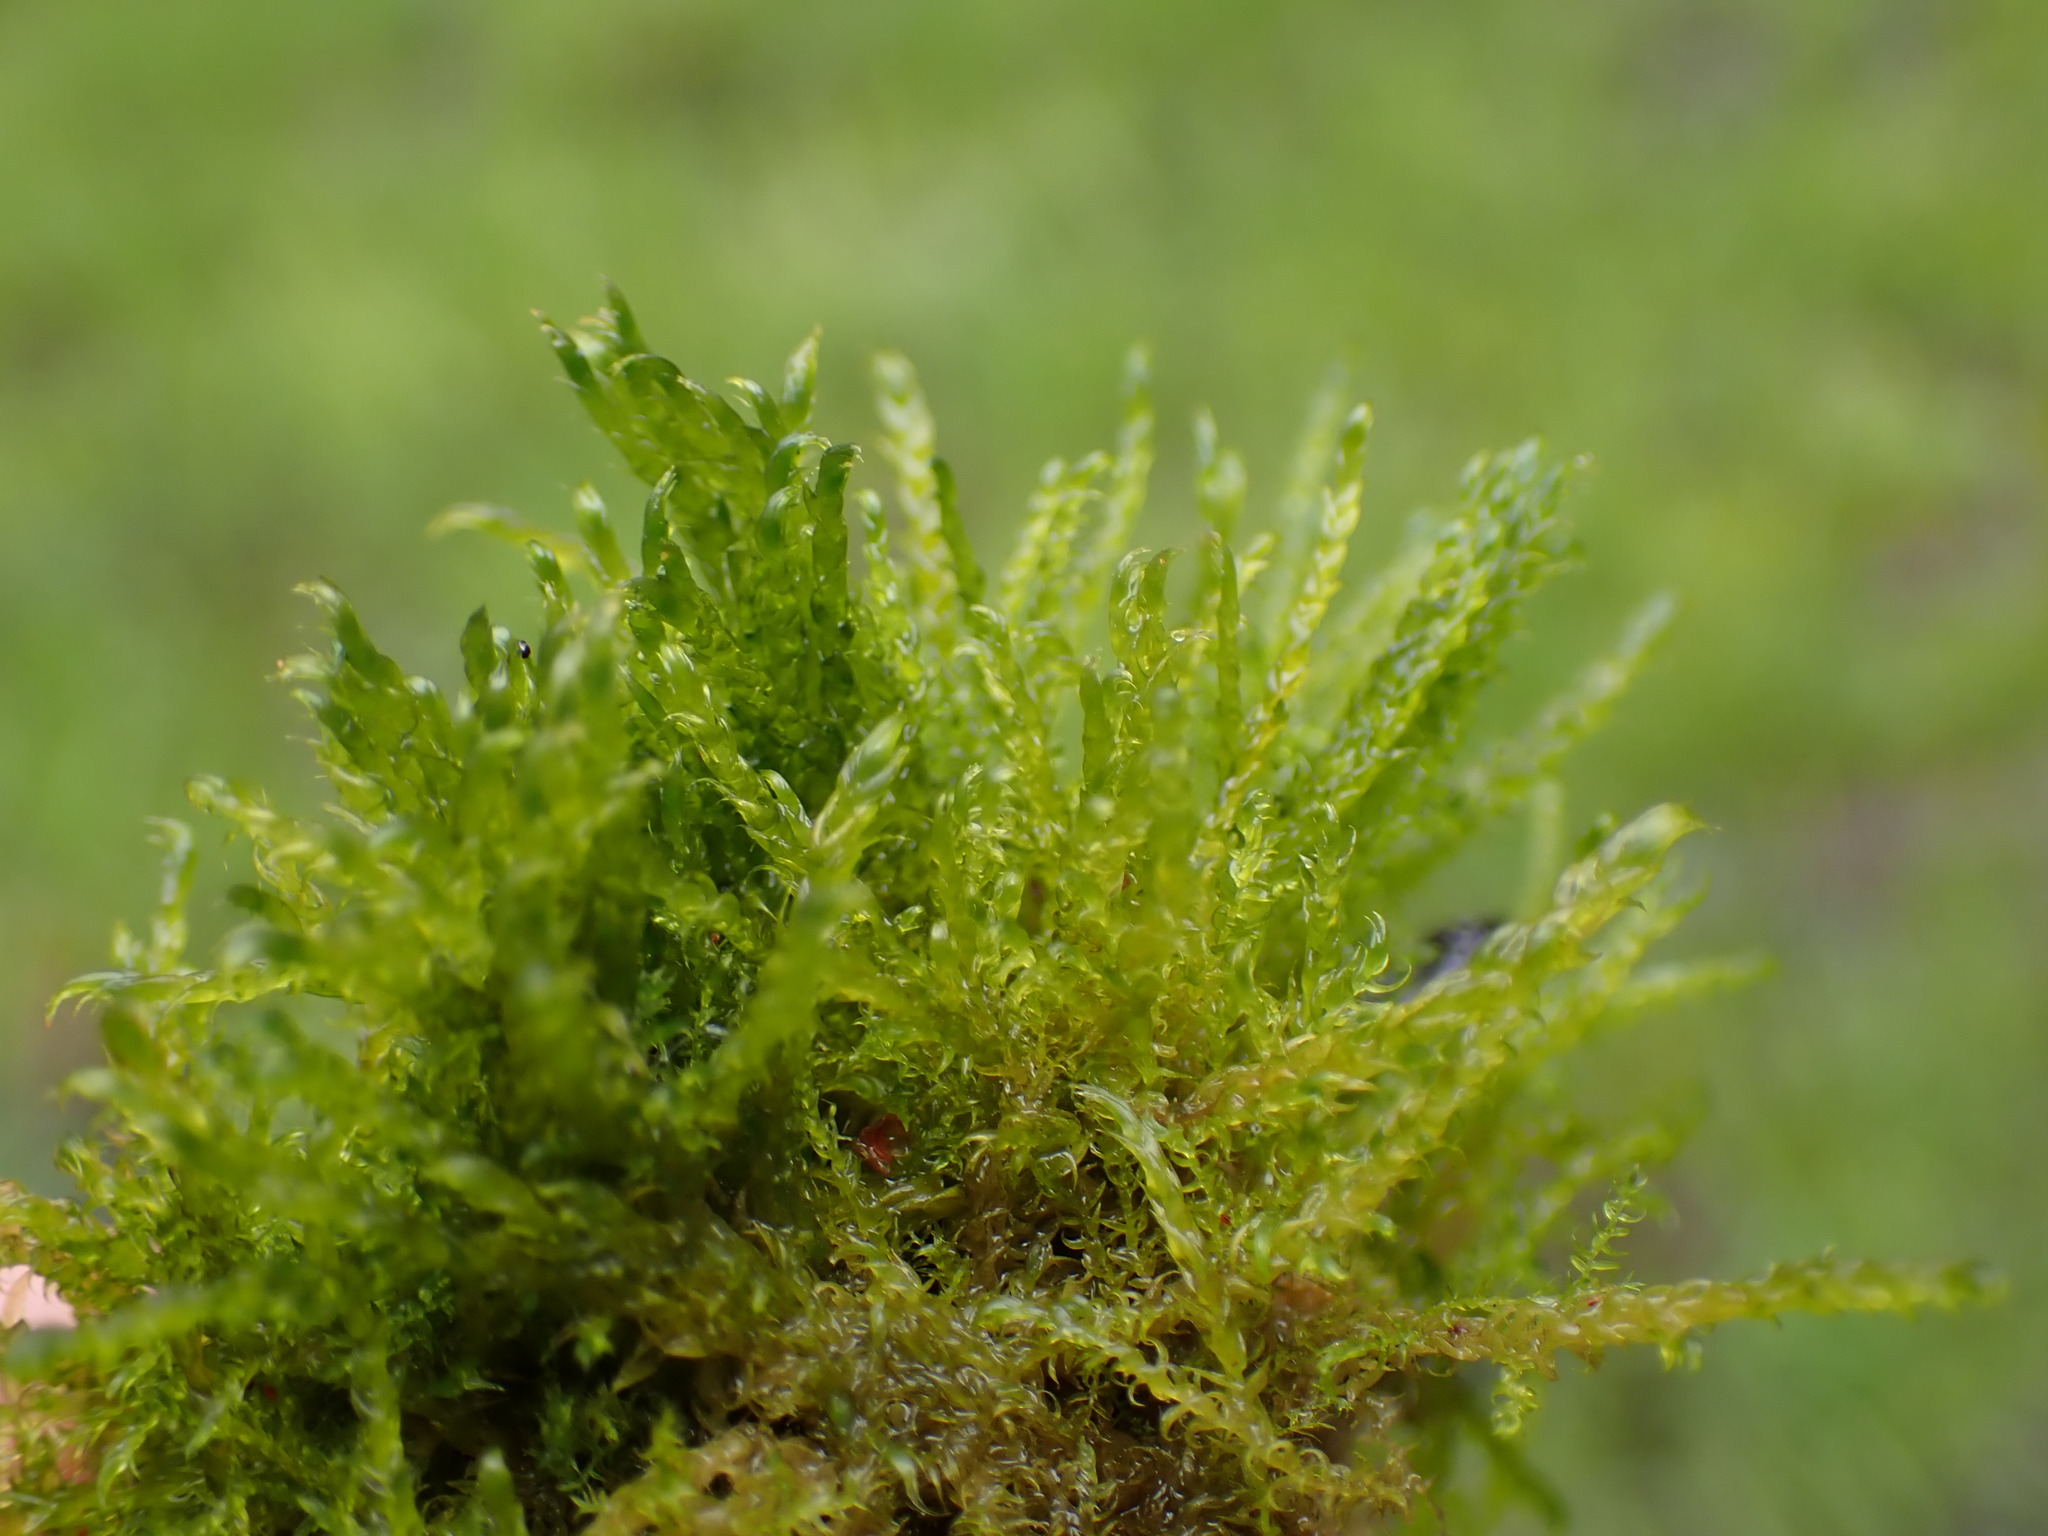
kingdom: Plantae
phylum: Bryophyta
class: Bryopsida
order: Hypnales
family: Amblystegiaceae
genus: Drepanocladus
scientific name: Drepanocladus aduncus
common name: Knieff's hook moss
